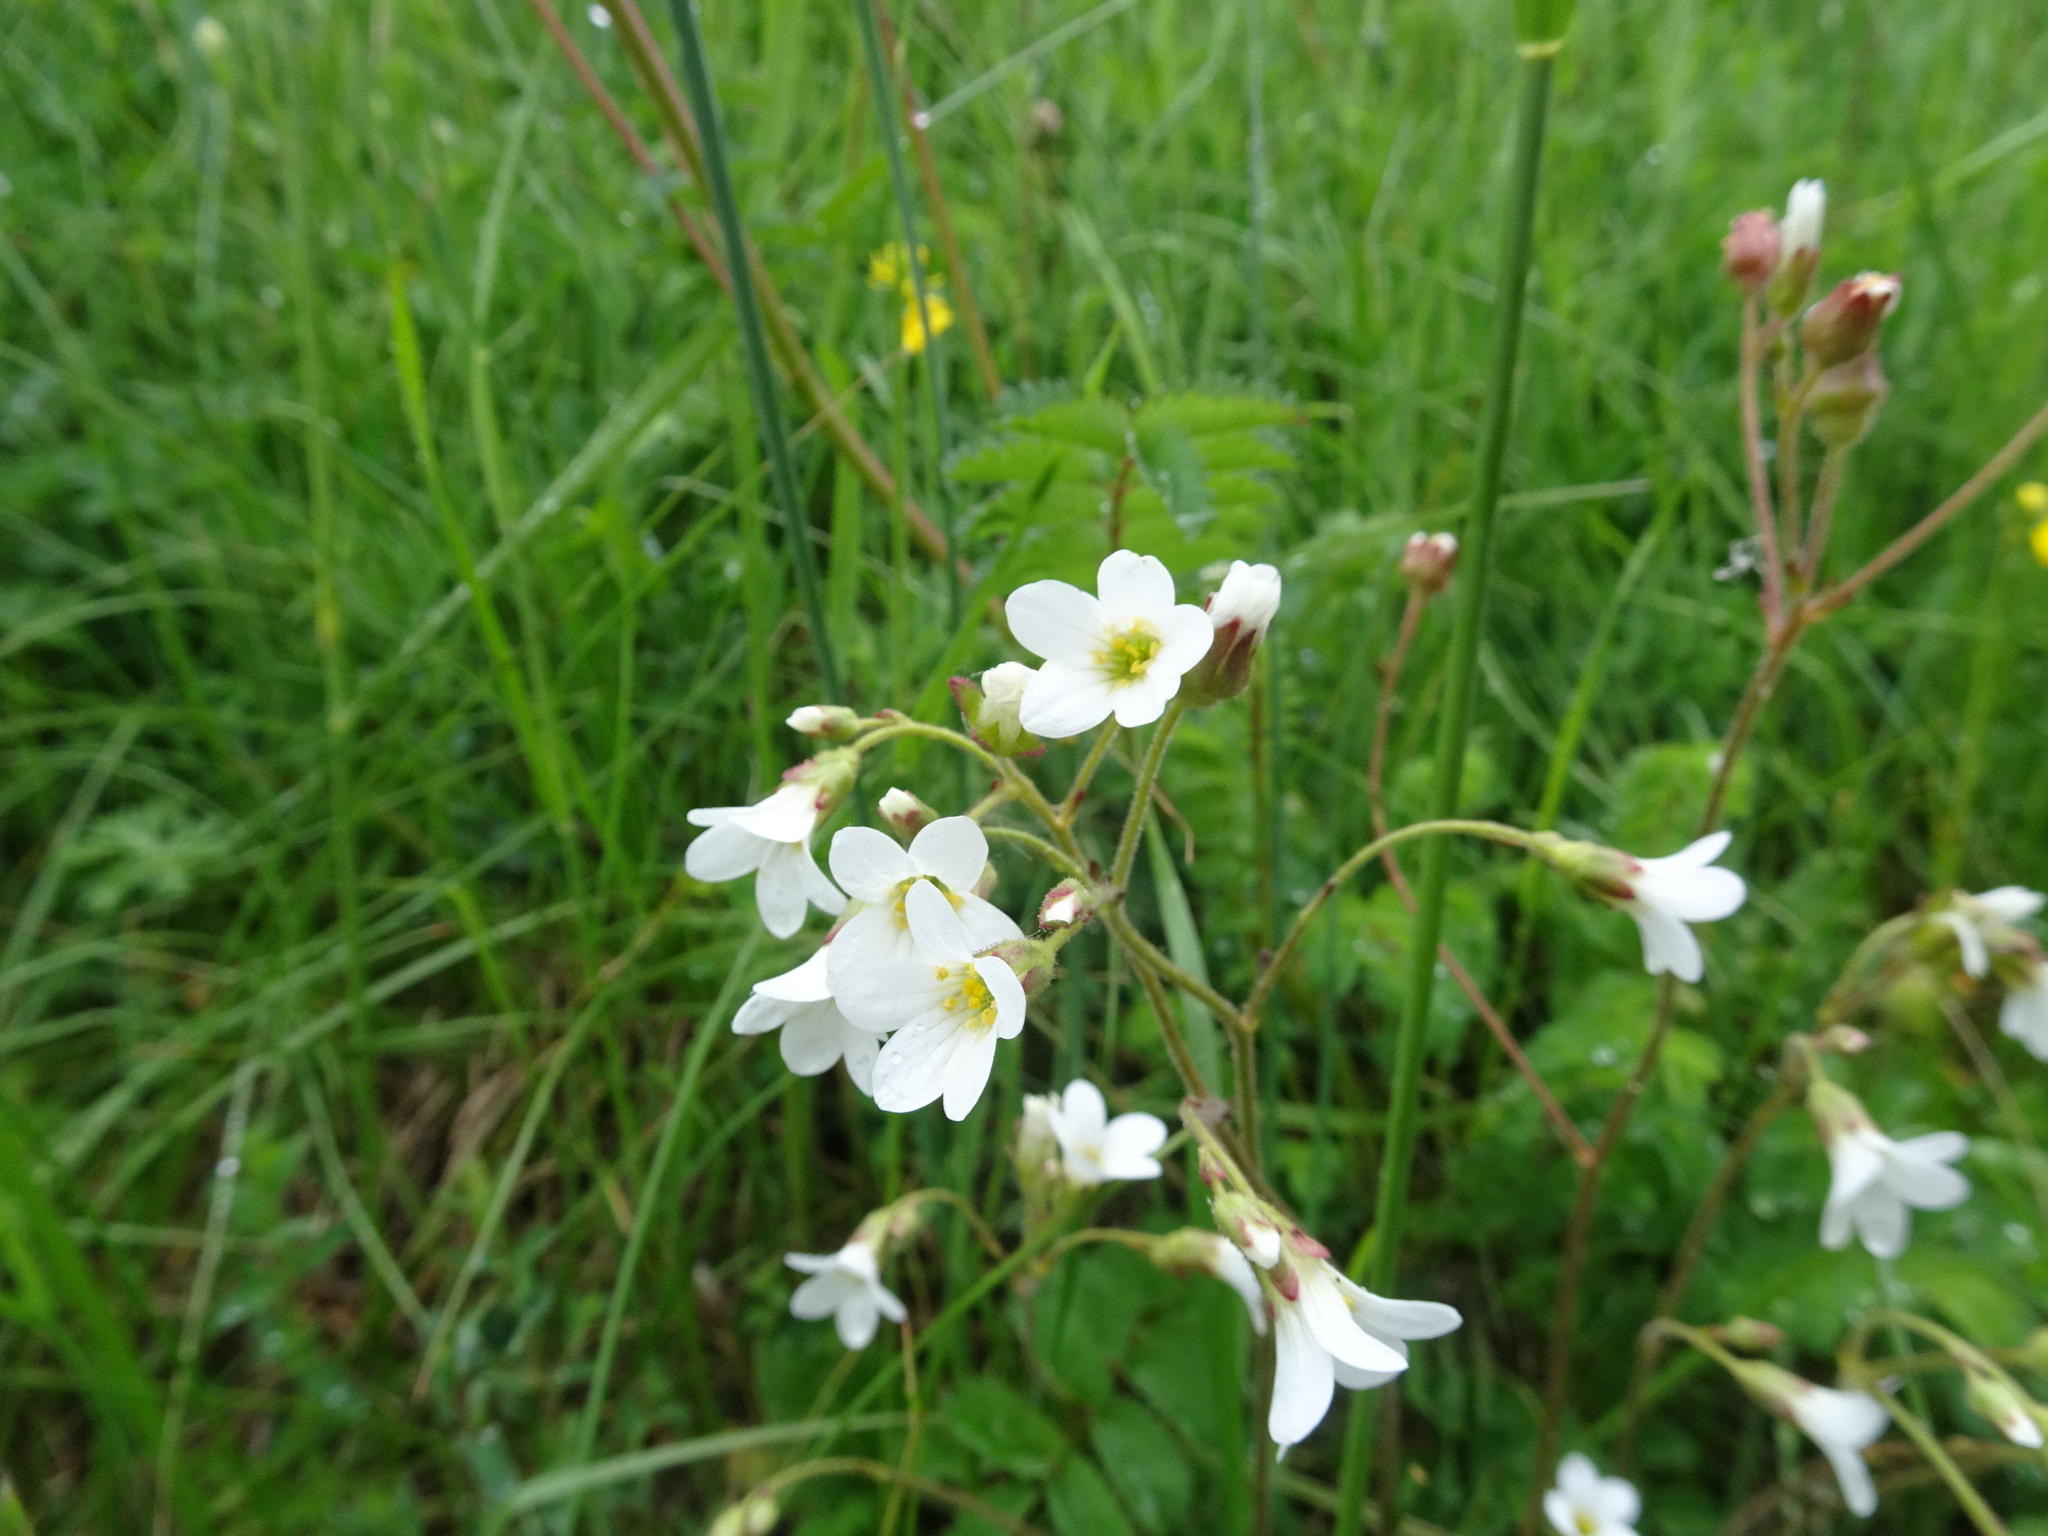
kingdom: Plantae
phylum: Tracheophyta
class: Magnoliopsida
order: Saxifragales
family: Saxifragaceae
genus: Saxifraga
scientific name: Saxifraga granulata
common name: Meadow saxifrage
